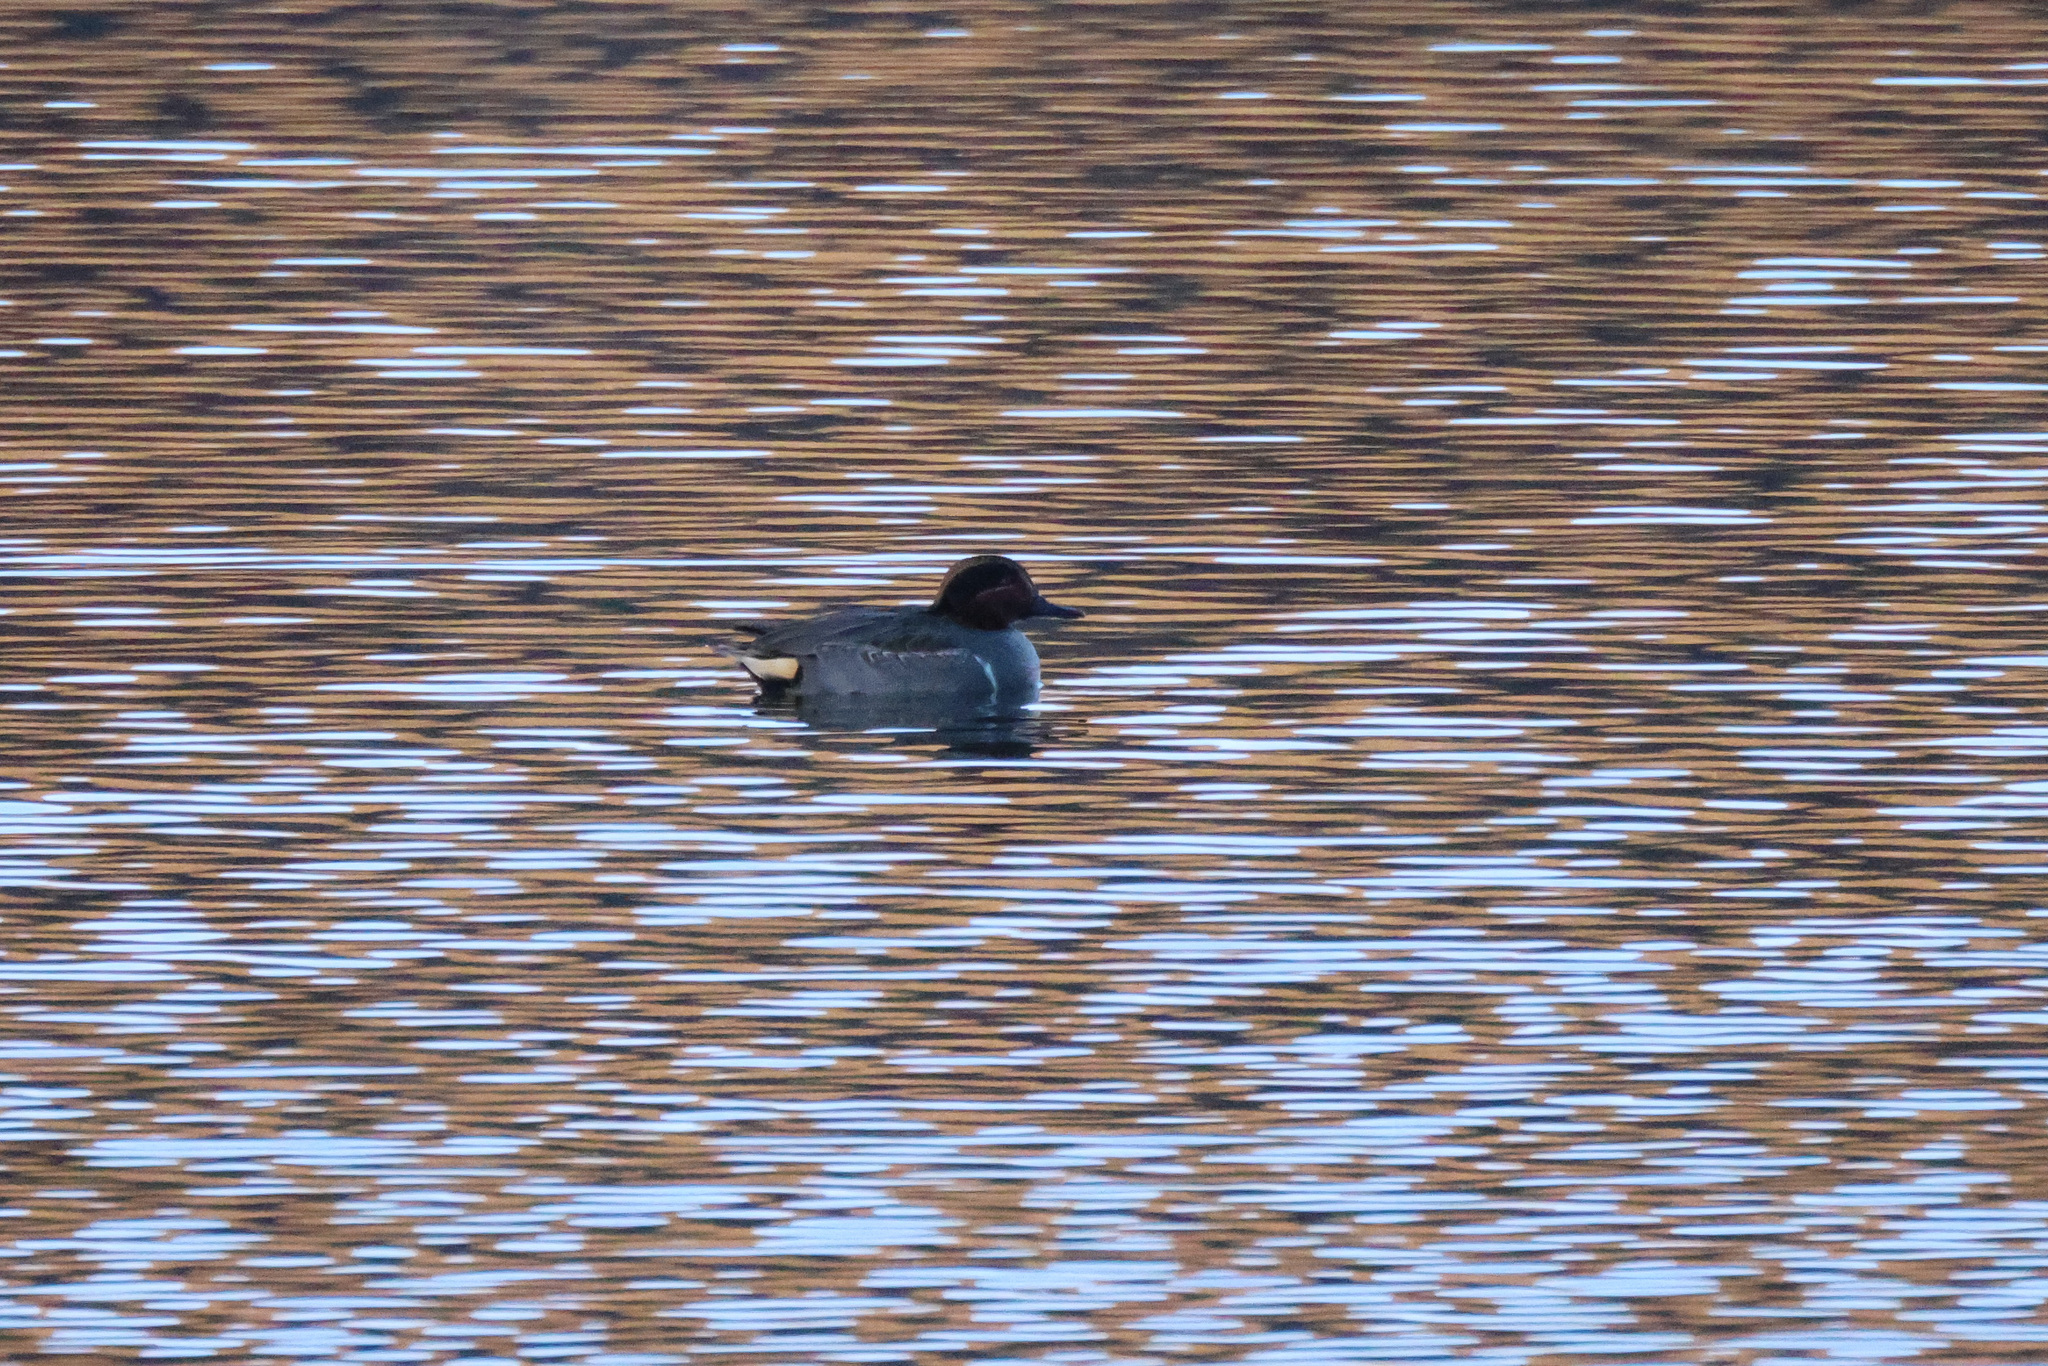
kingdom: Animalia
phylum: Chordata
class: Aves
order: Anseriformes
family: Anatidae
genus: Anas
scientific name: Anas carolinensis
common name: Green-winged teal
